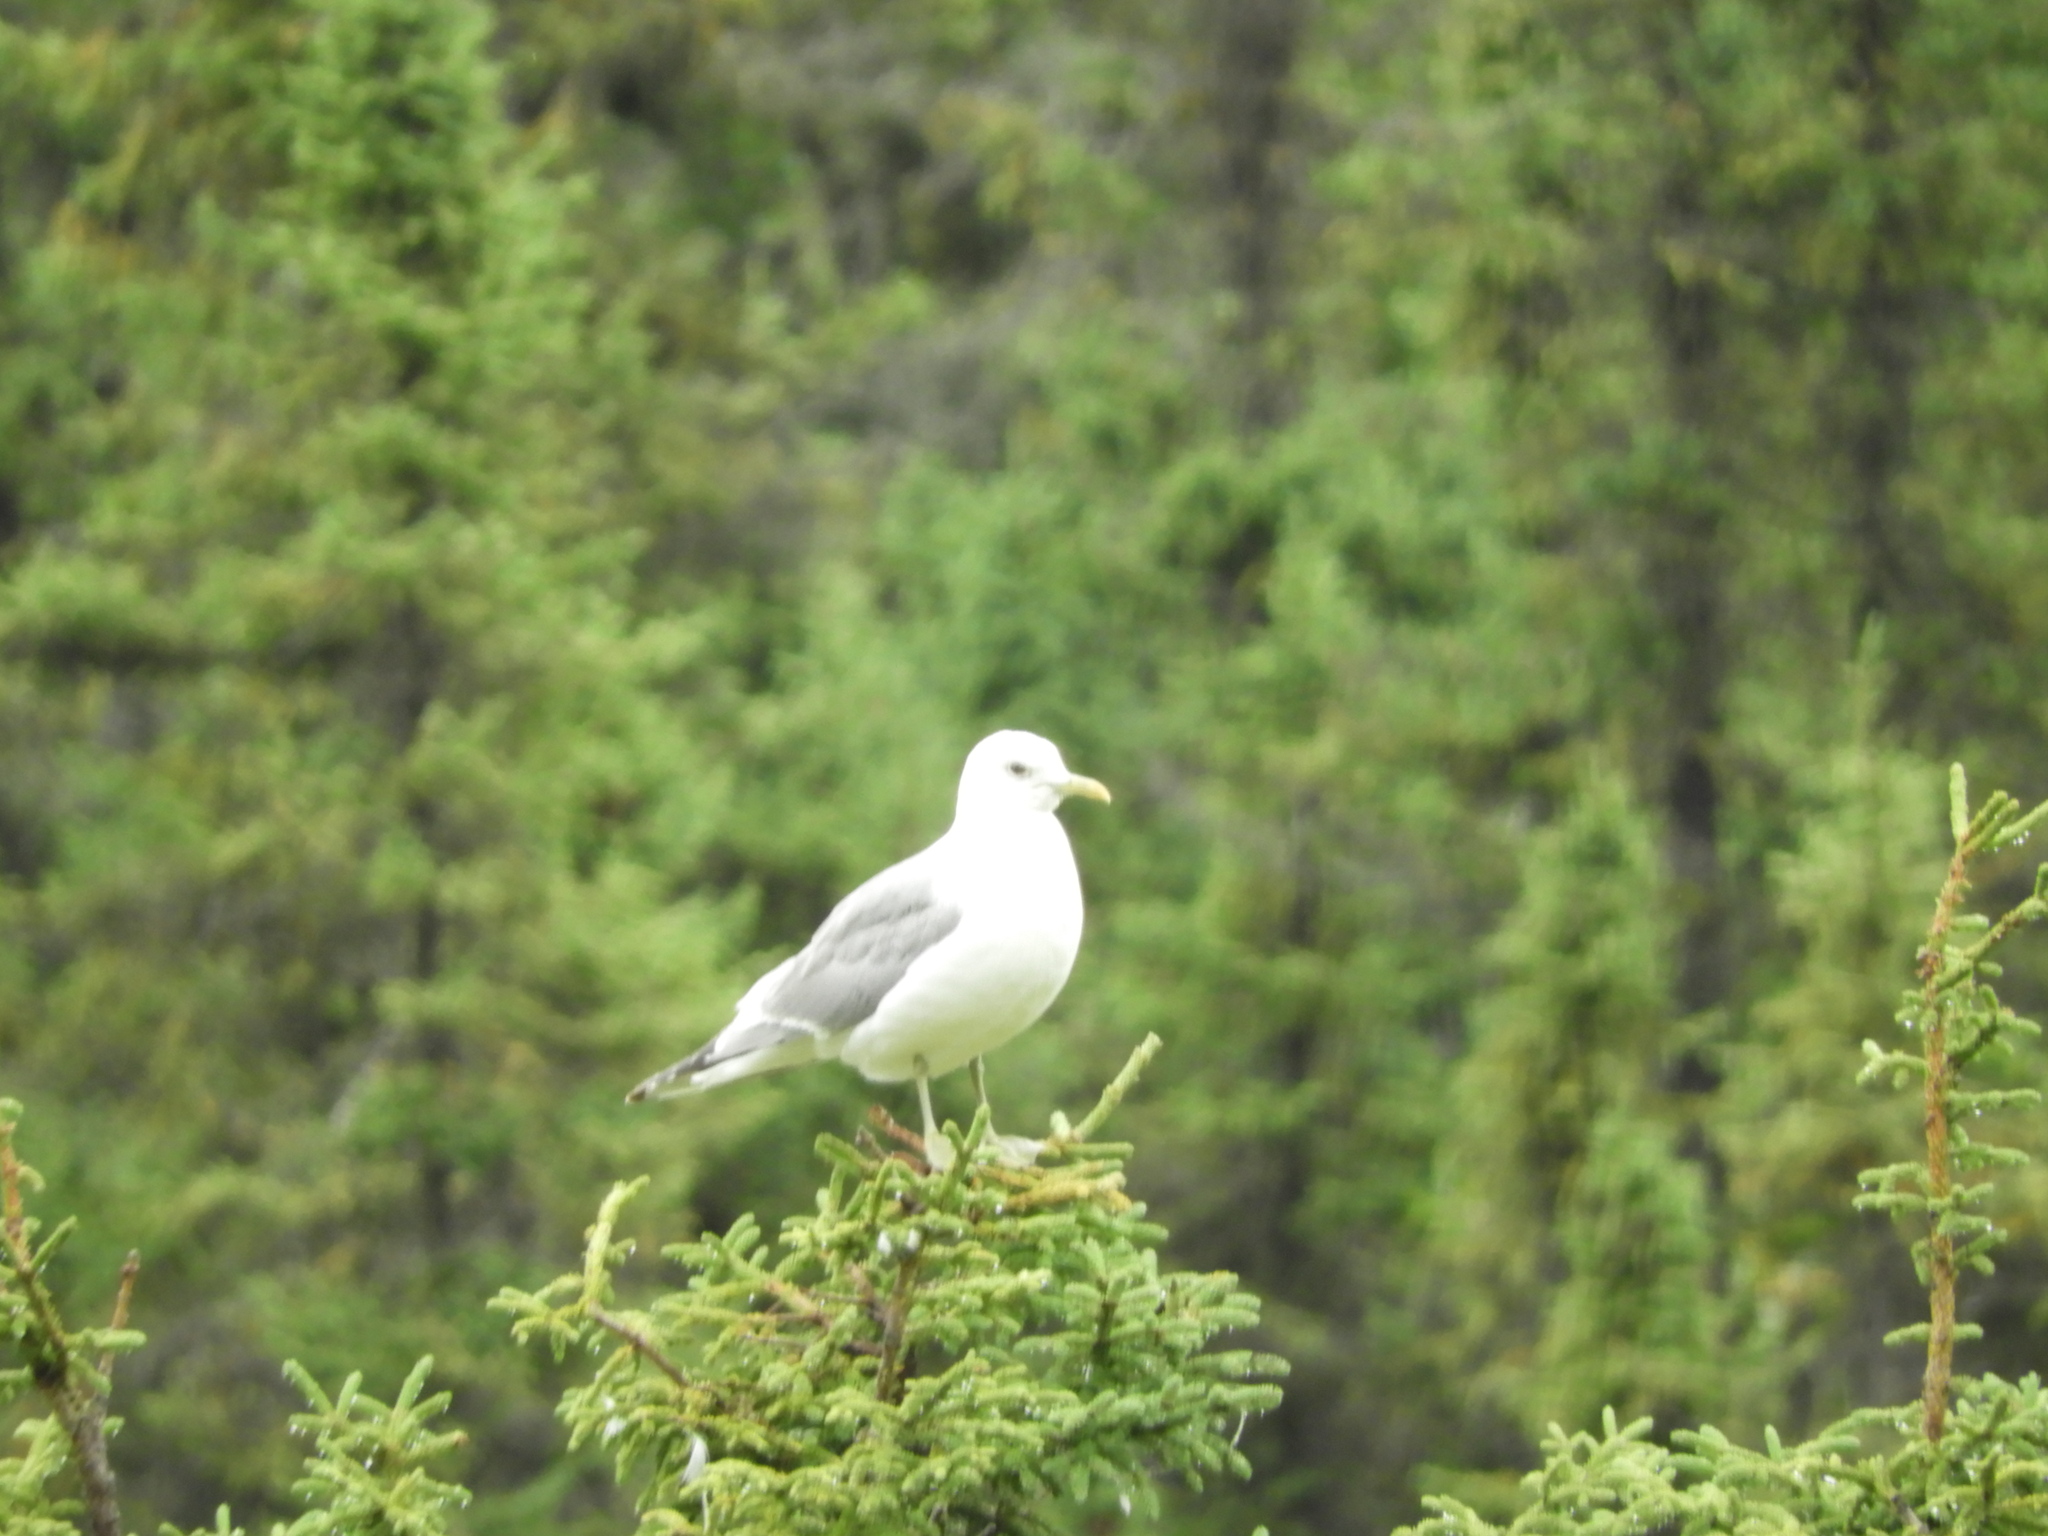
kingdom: Animalia
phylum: Chordata
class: Aves
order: Charadriiformes
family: Laridae
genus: Larus
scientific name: Larus brachyrhynchus
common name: Short-billed gull
